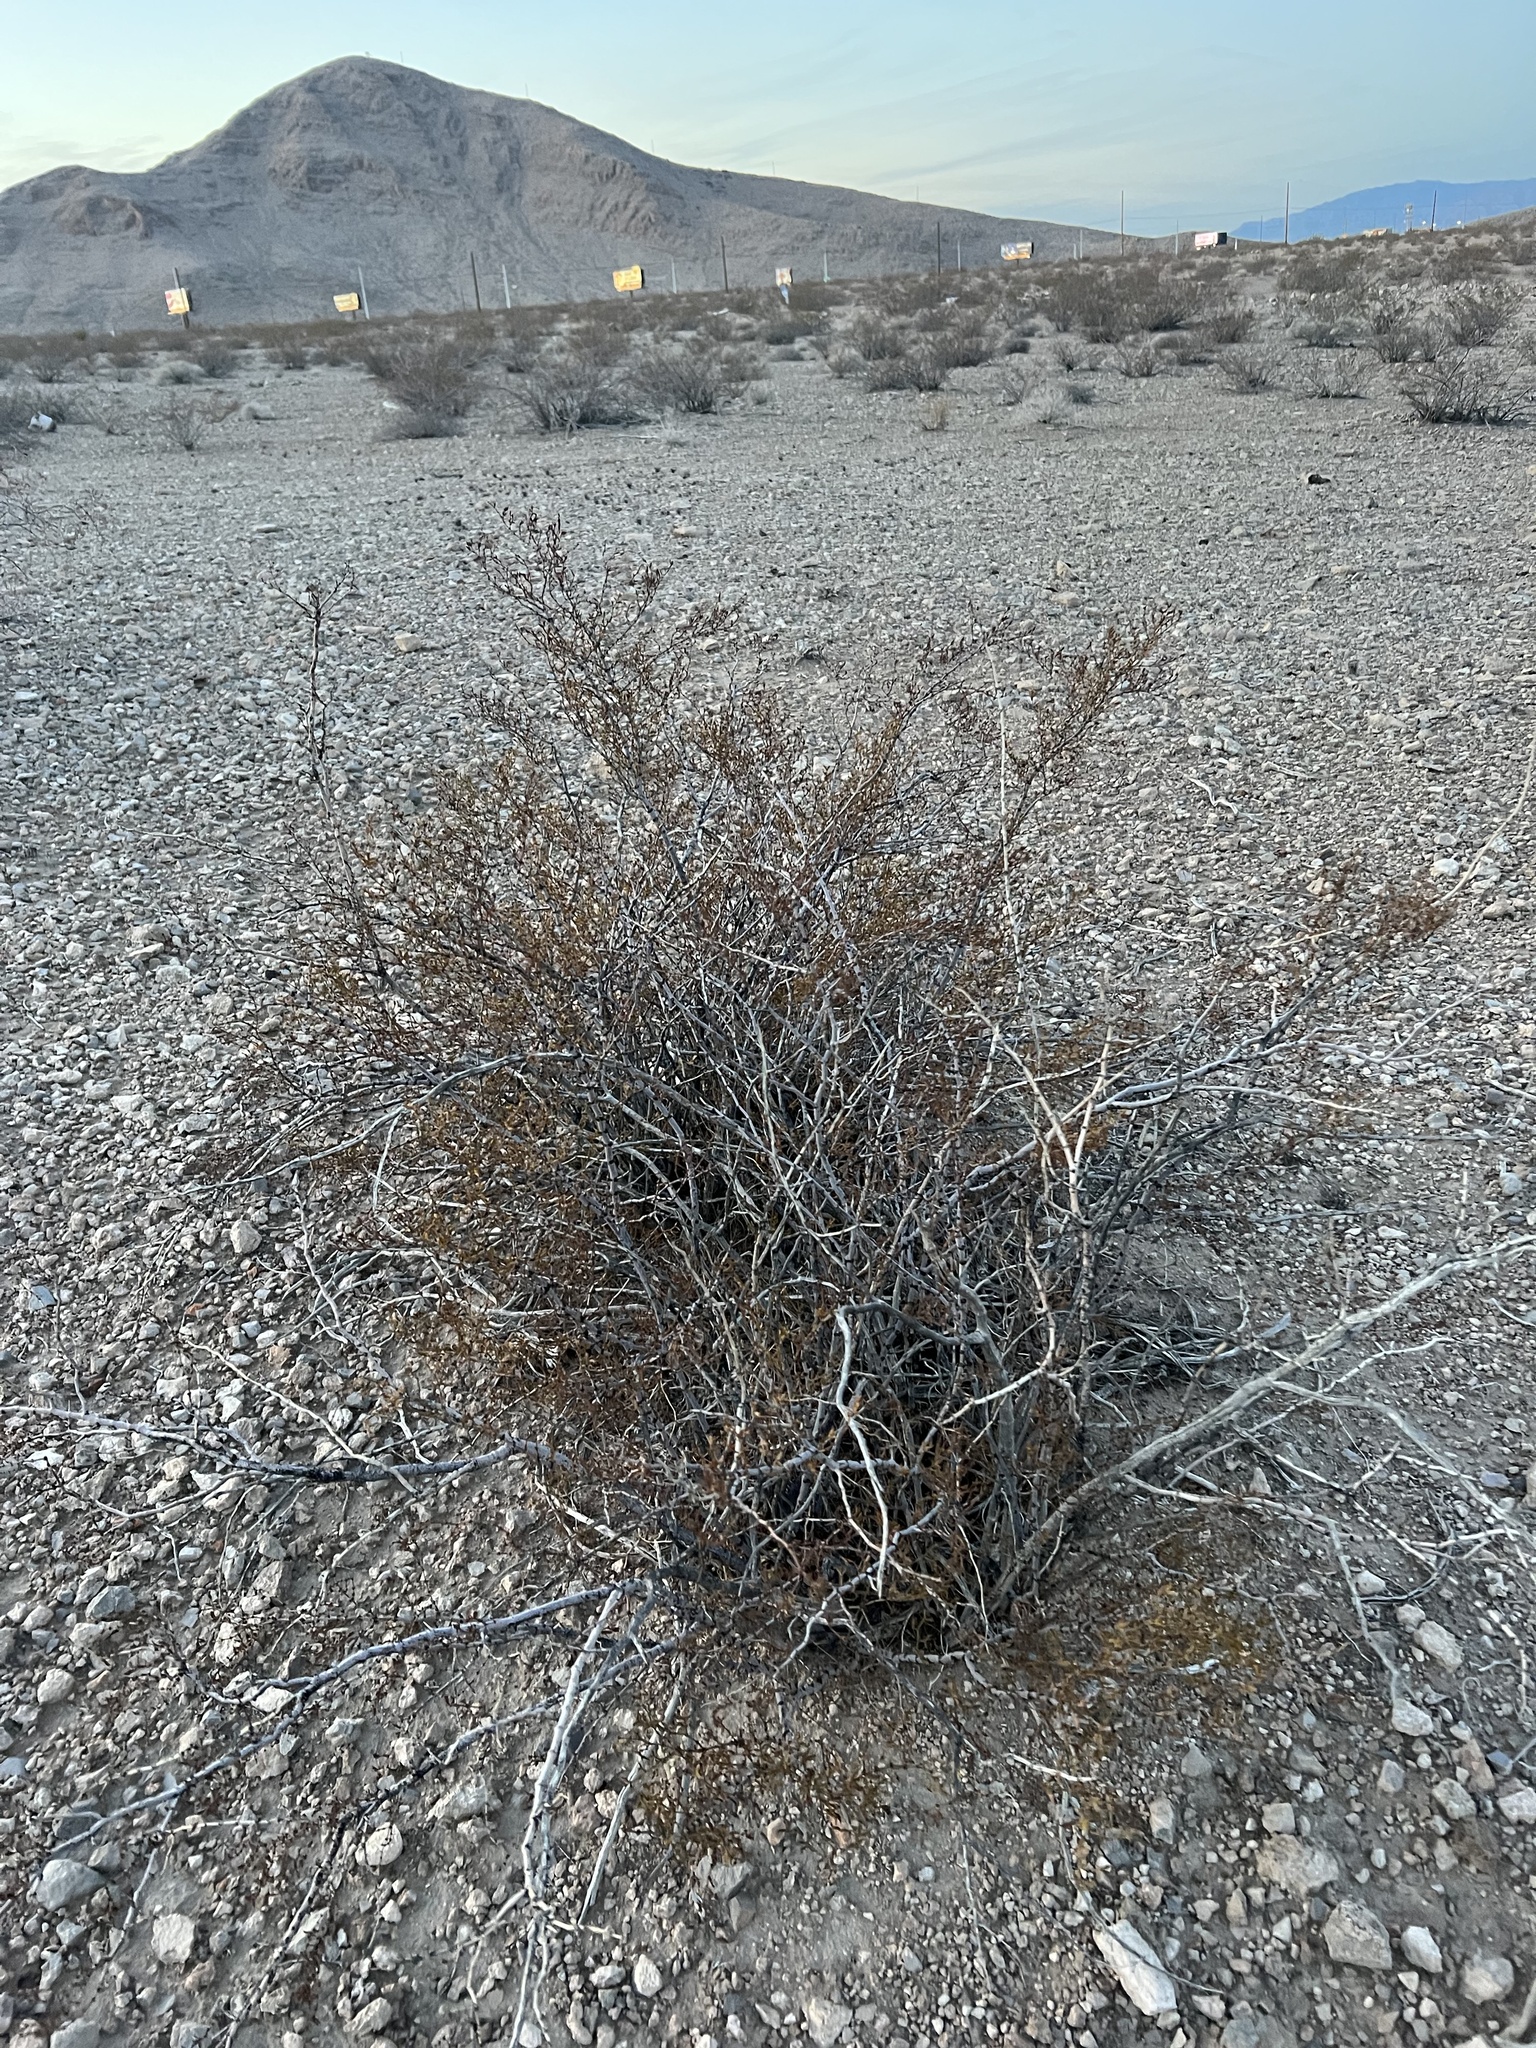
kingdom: Plantae
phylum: Tracheophyta
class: Magnoliopsida
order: Zygophyllales
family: Zygophyllaceae
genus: Larrea
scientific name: Larrea tridentata
